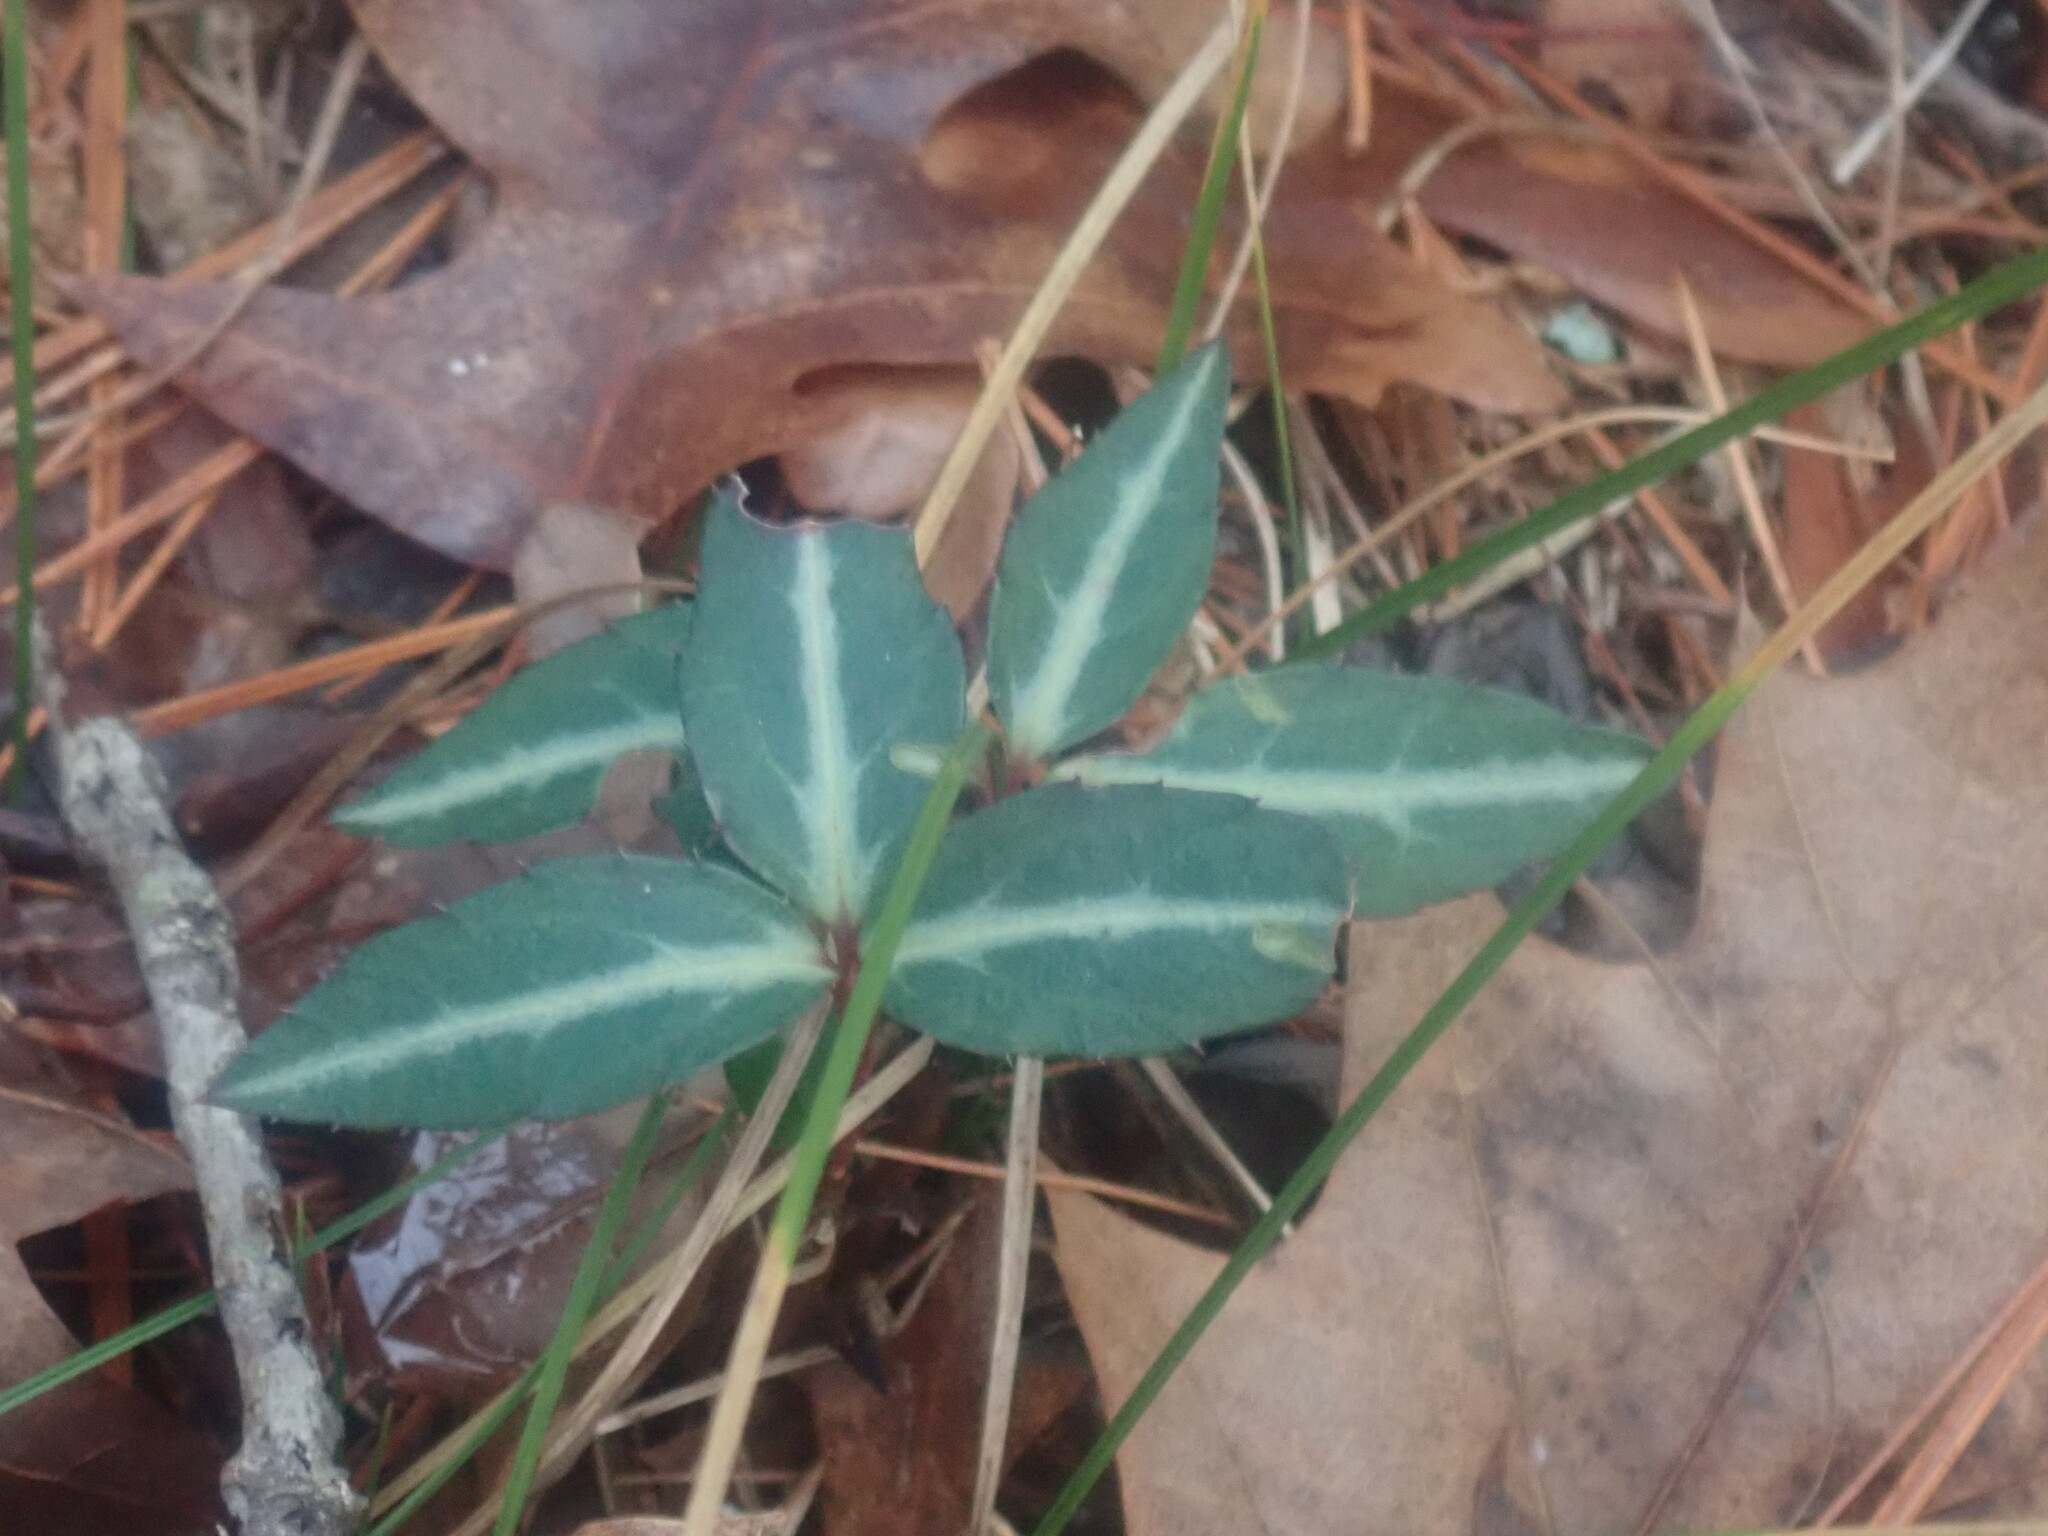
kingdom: Plantae
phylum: Tracheophyta
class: Magnoliopsida
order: Ericales
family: Ericaceae
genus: Chimaphila
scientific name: Chimaphila maculata
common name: Spotted pipsissewa
